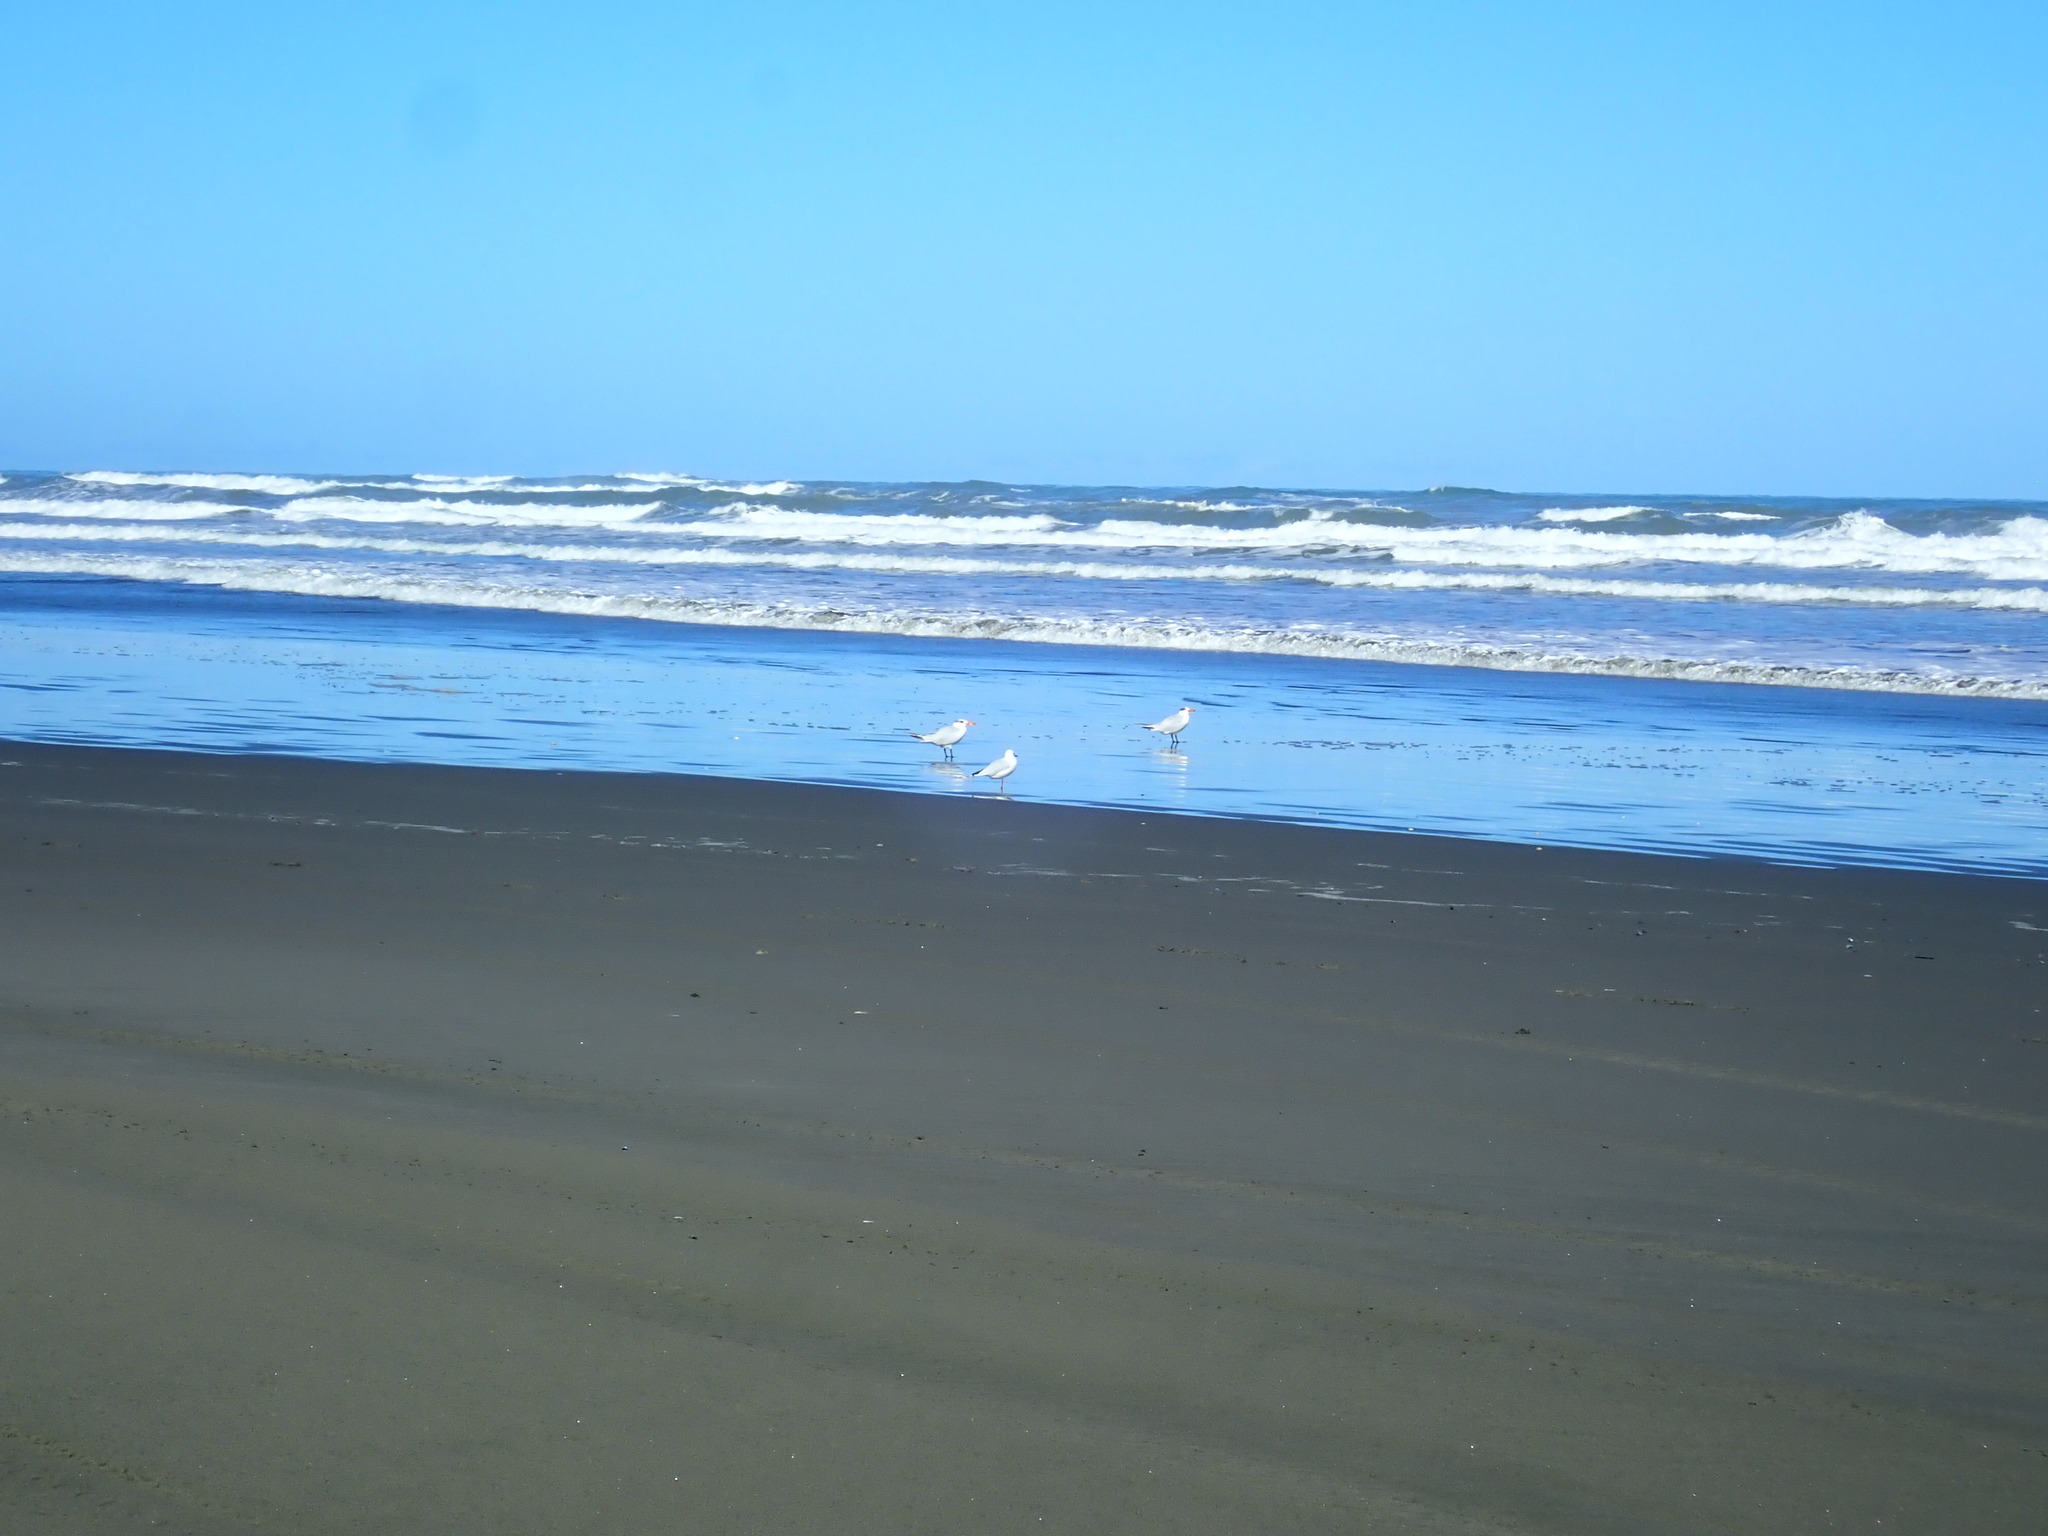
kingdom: Animalia
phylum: Chordata
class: Aves
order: Charadriiformes
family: Laridae
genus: Hydroprogne
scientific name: Hydroprogne caspia
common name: Caspian tern
